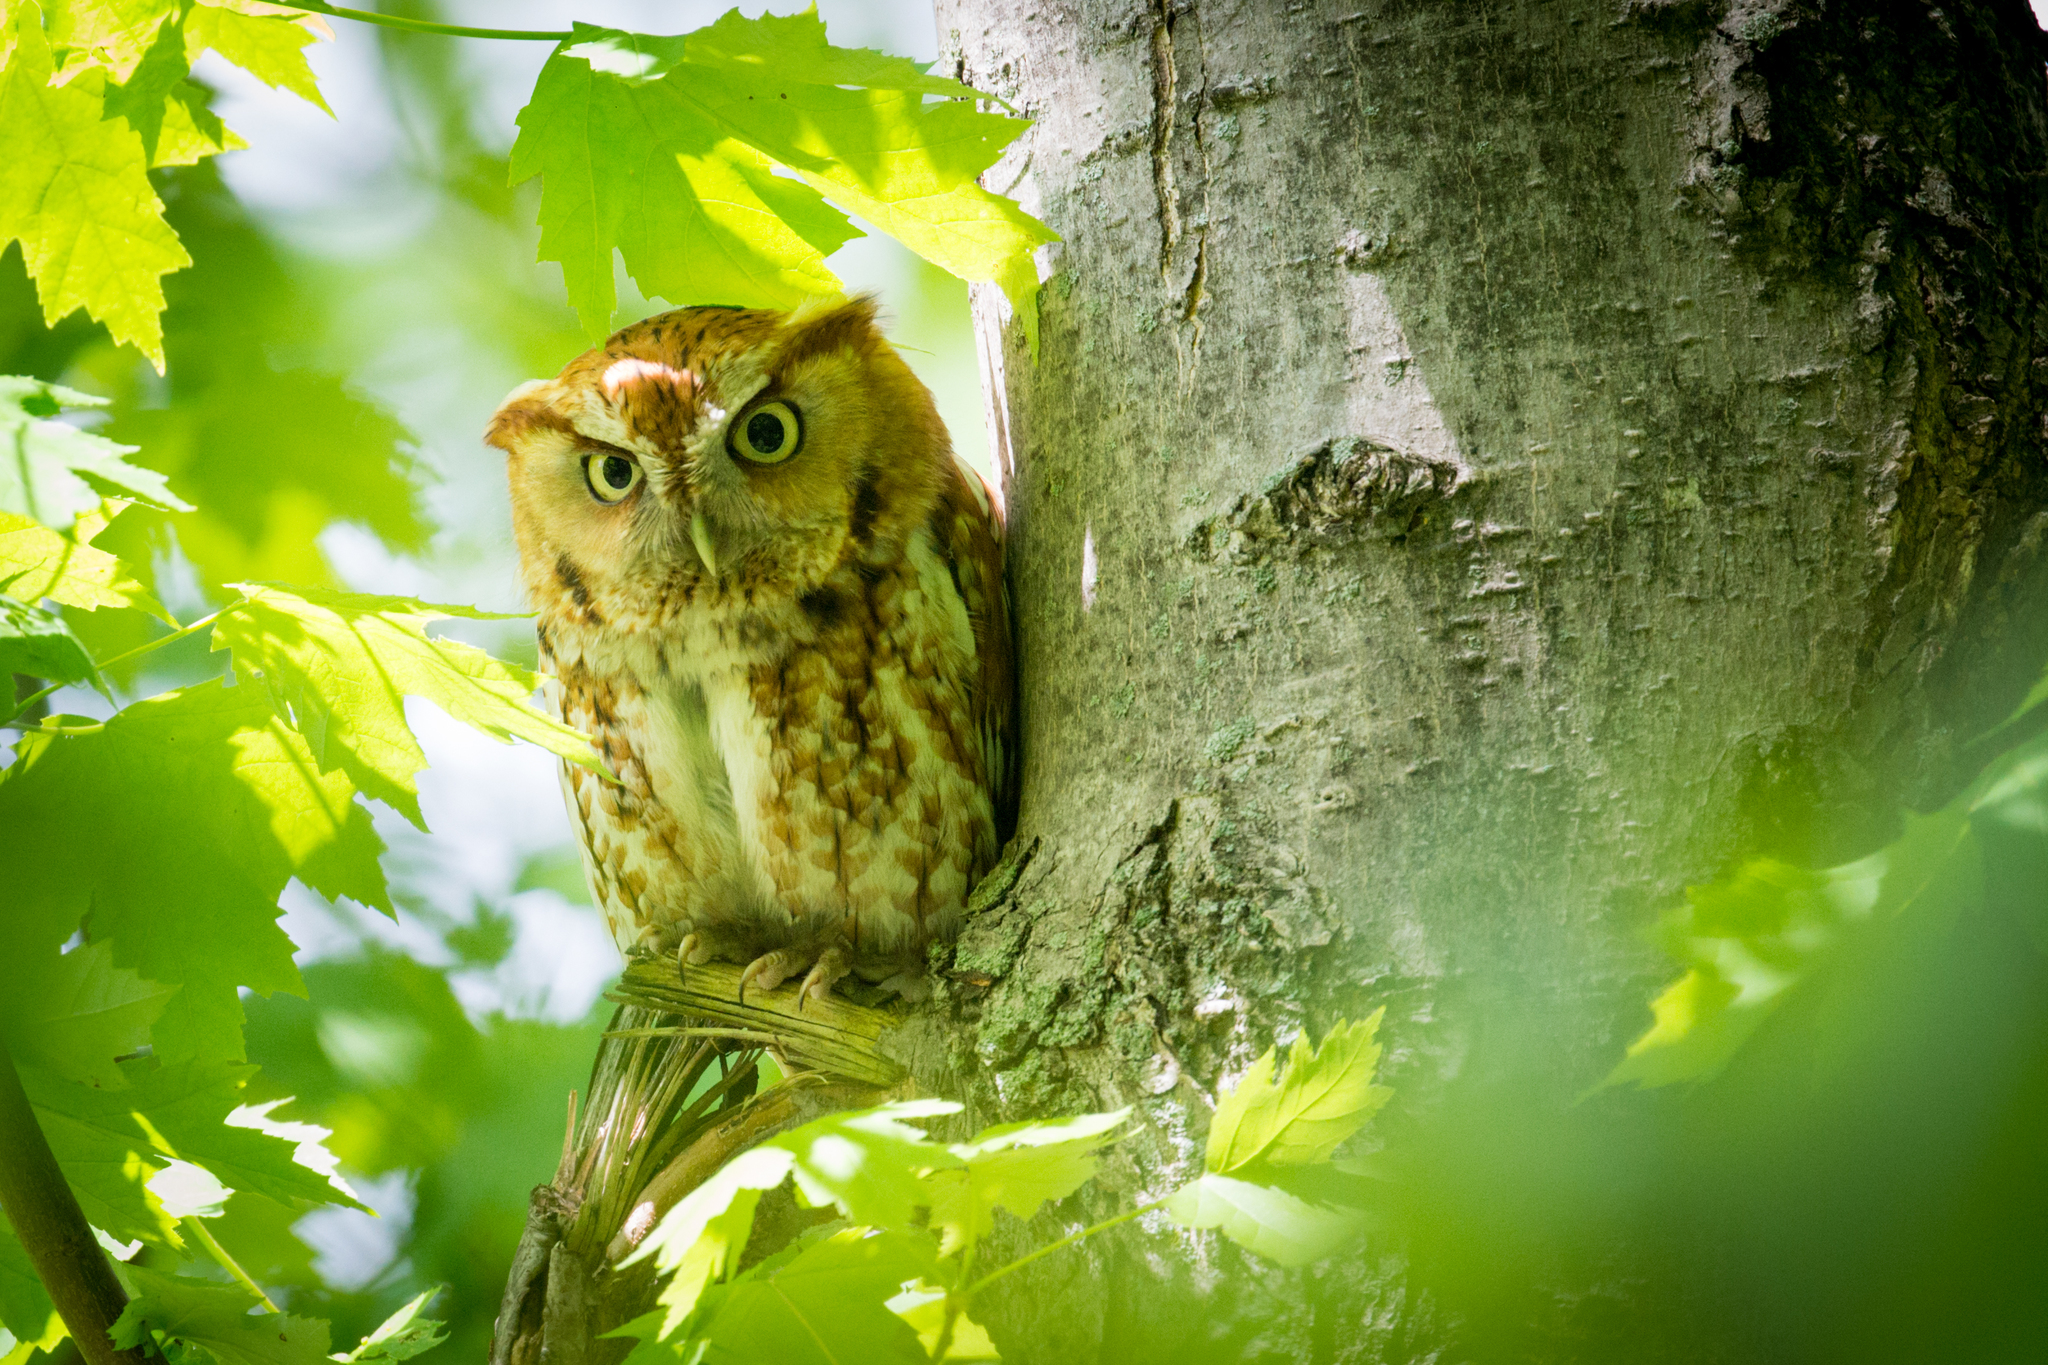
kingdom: Animalia
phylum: Chordata
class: Aves
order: Strigiformes
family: Strigidae
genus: Megascops
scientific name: Megascops asio
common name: Eastern screech-owl
